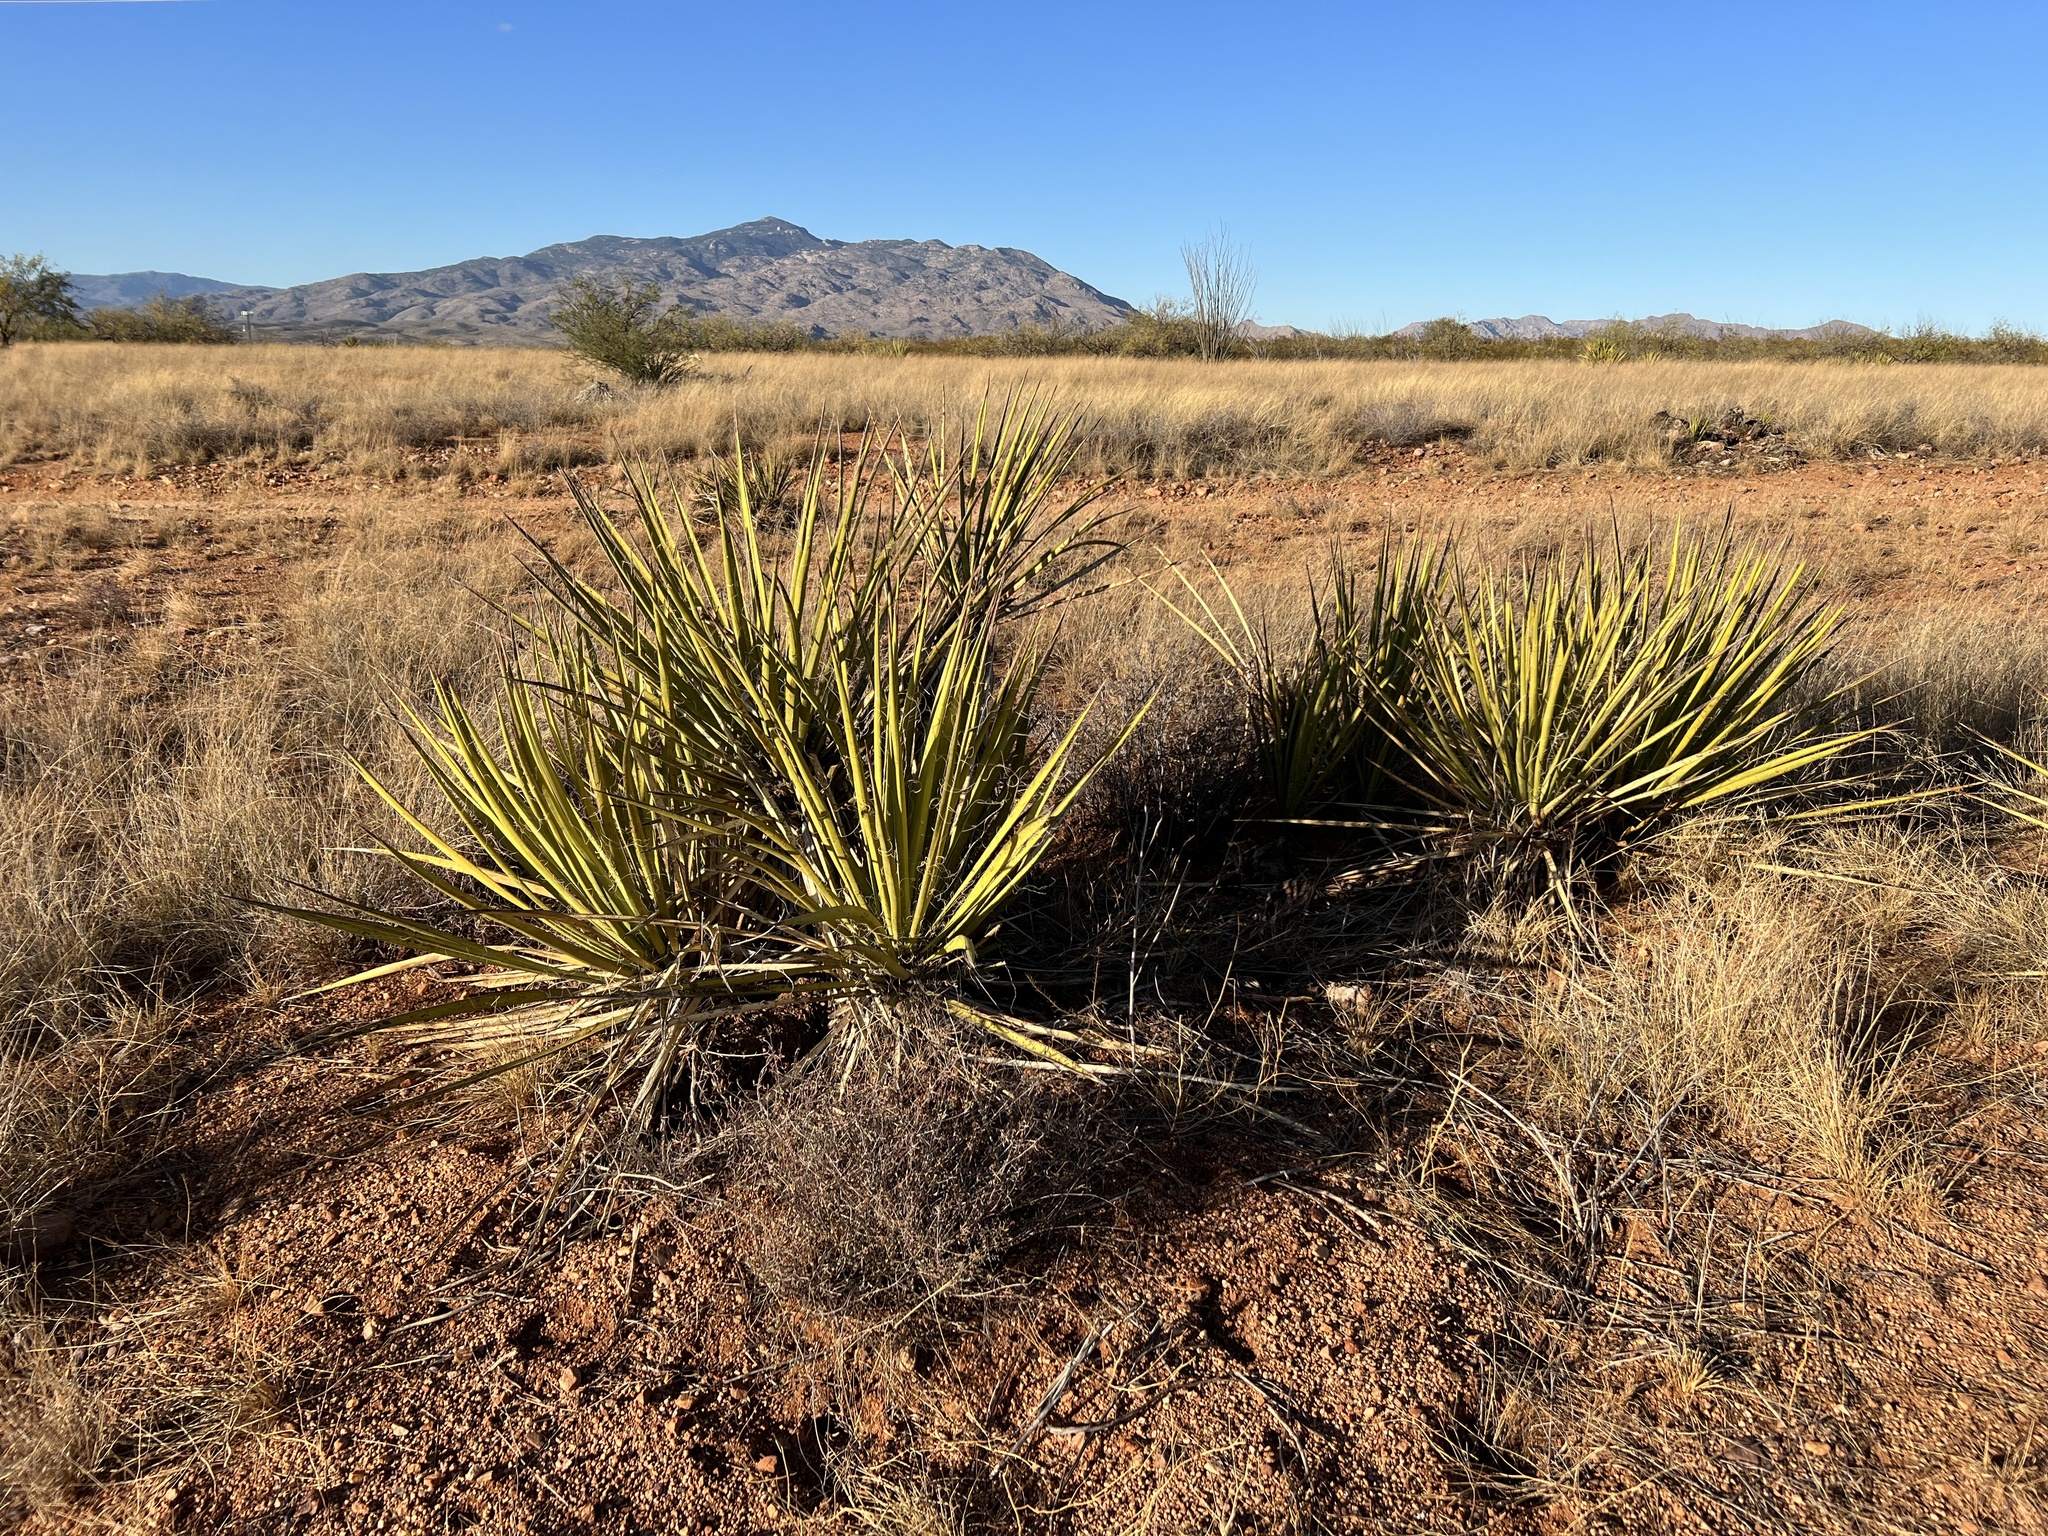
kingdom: Plantae
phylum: Tracheophyta
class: Liliopsida
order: Asparagales
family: Asparagaceae
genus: Yucca
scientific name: Yucca baccata
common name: Banana yucca
